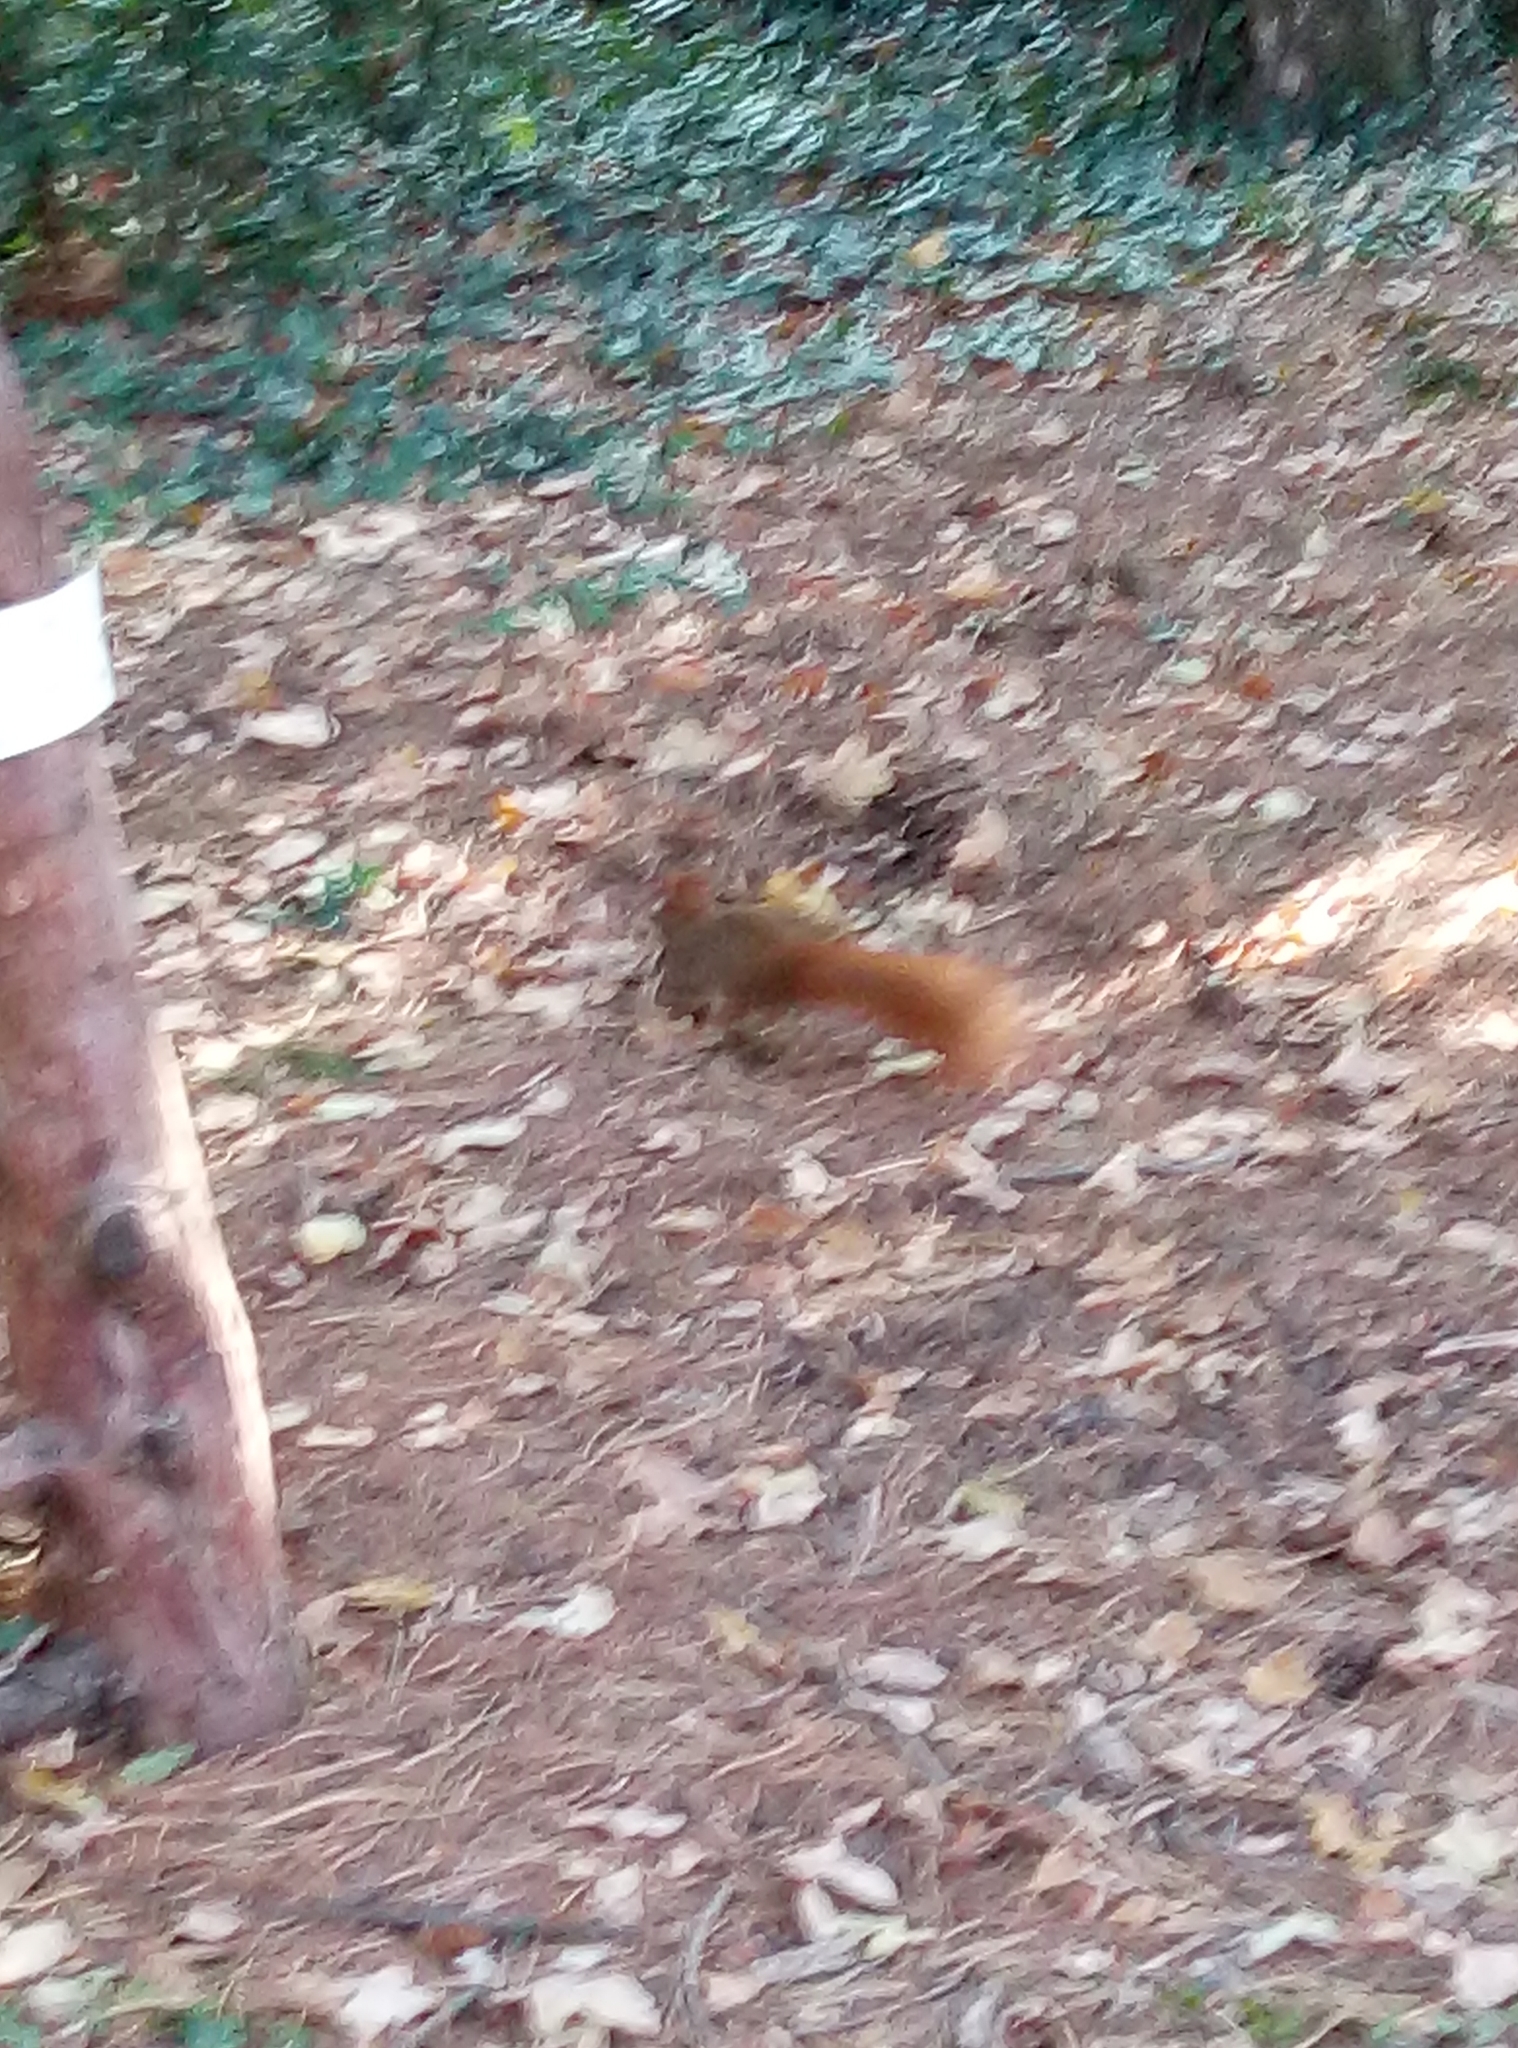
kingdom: Animalia
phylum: Chordata
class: Mammalia
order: Rodentia
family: Sciuridae
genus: Sciurus
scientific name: Sciurus vulgaris
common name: Eurasian red squirrel
